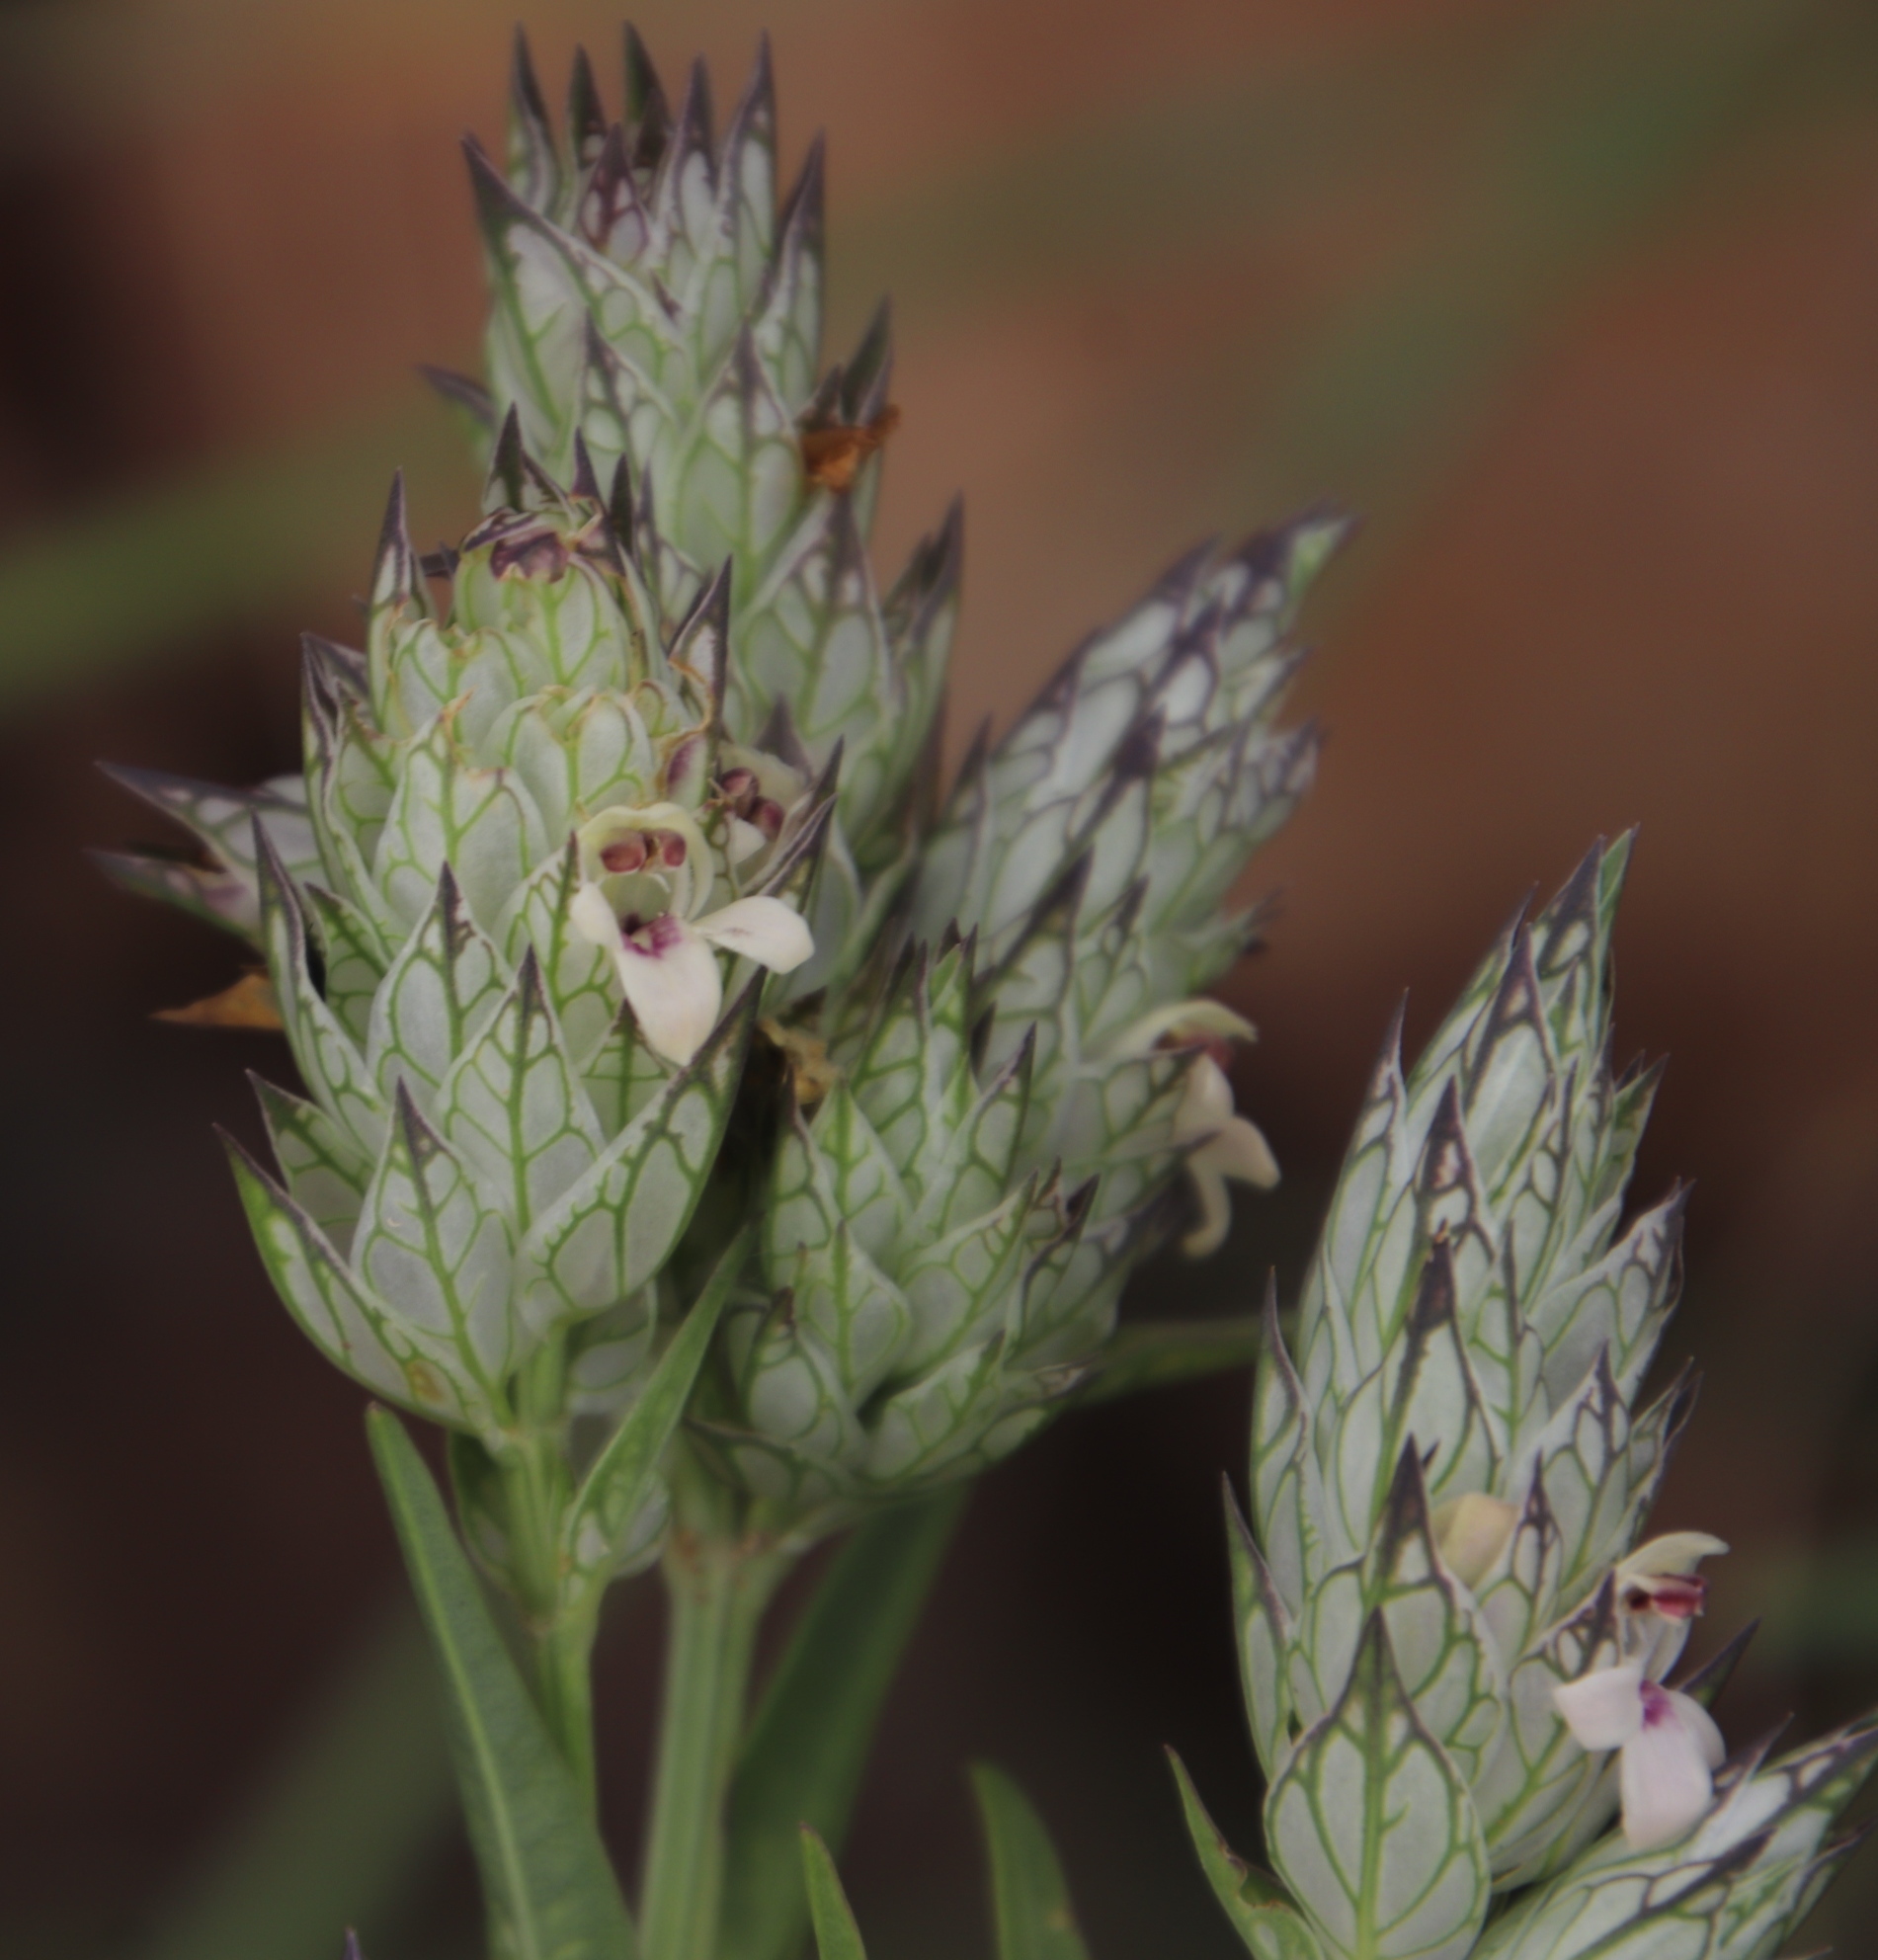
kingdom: Plantae
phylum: Tracheophyta
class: Magnoliopsida
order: Lamiales
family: Acanthaceae
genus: Justicia
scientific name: Justicia betonica
